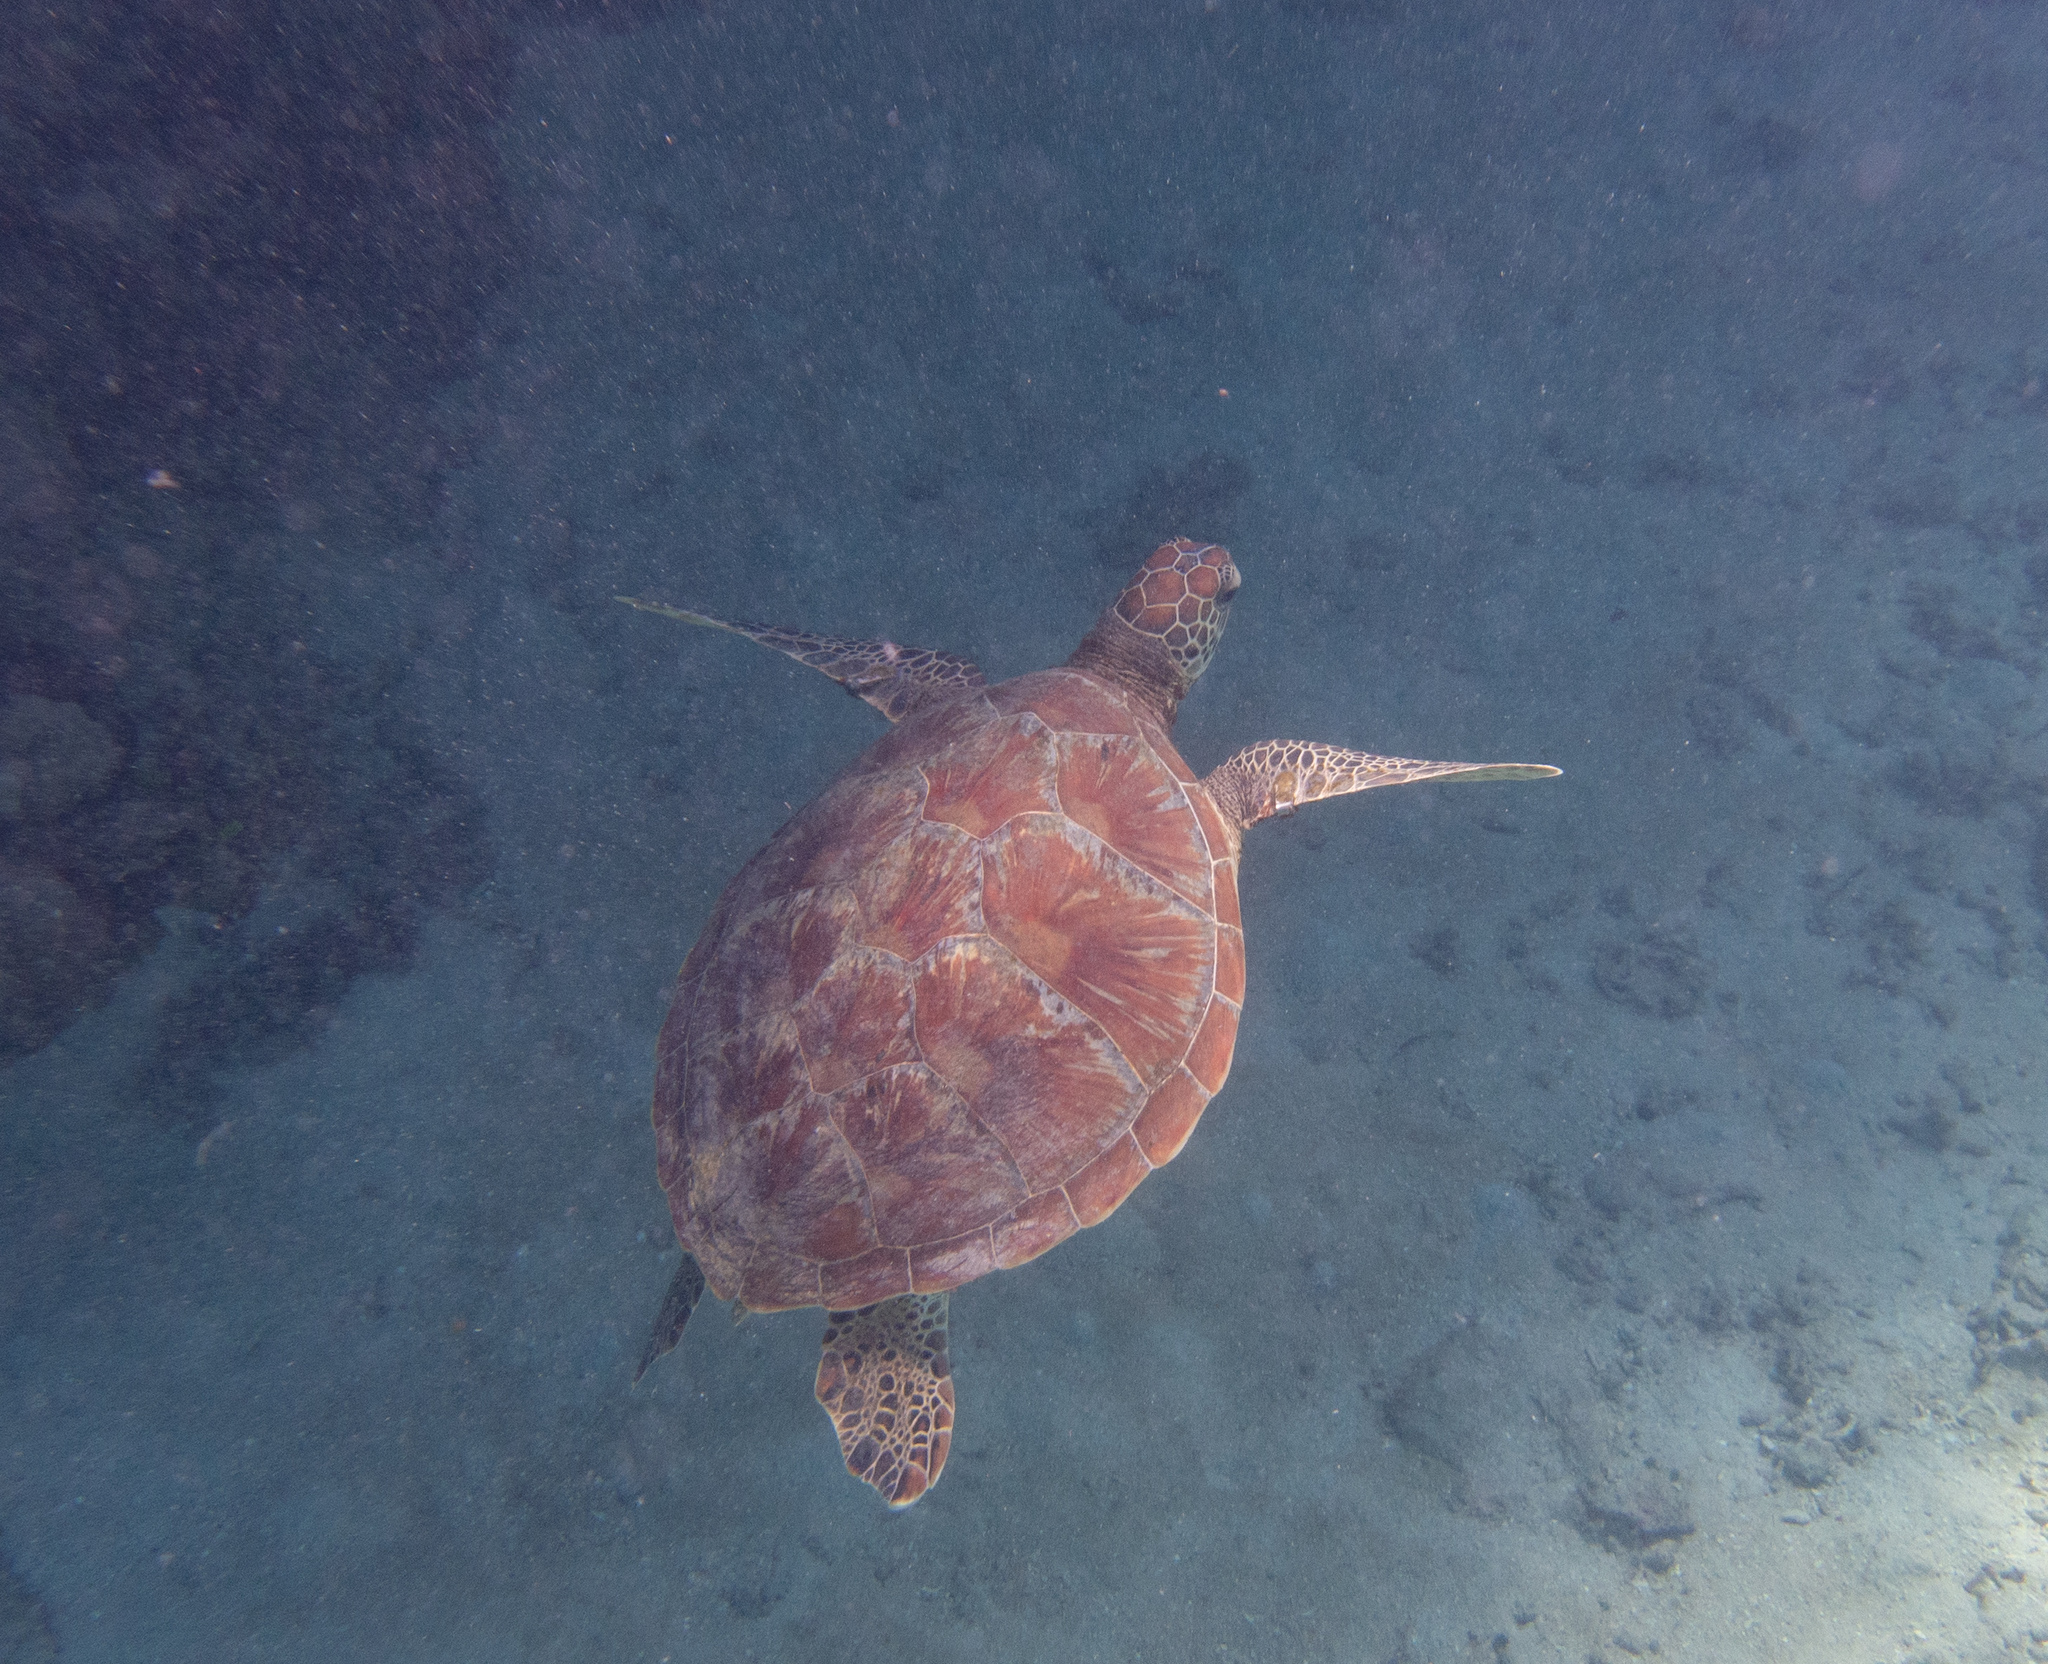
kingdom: Animalia
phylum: Chordata
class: Testudines
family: Cheloniidae
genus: Chelonia
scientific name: Chelonia mydas
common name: Green turtle
